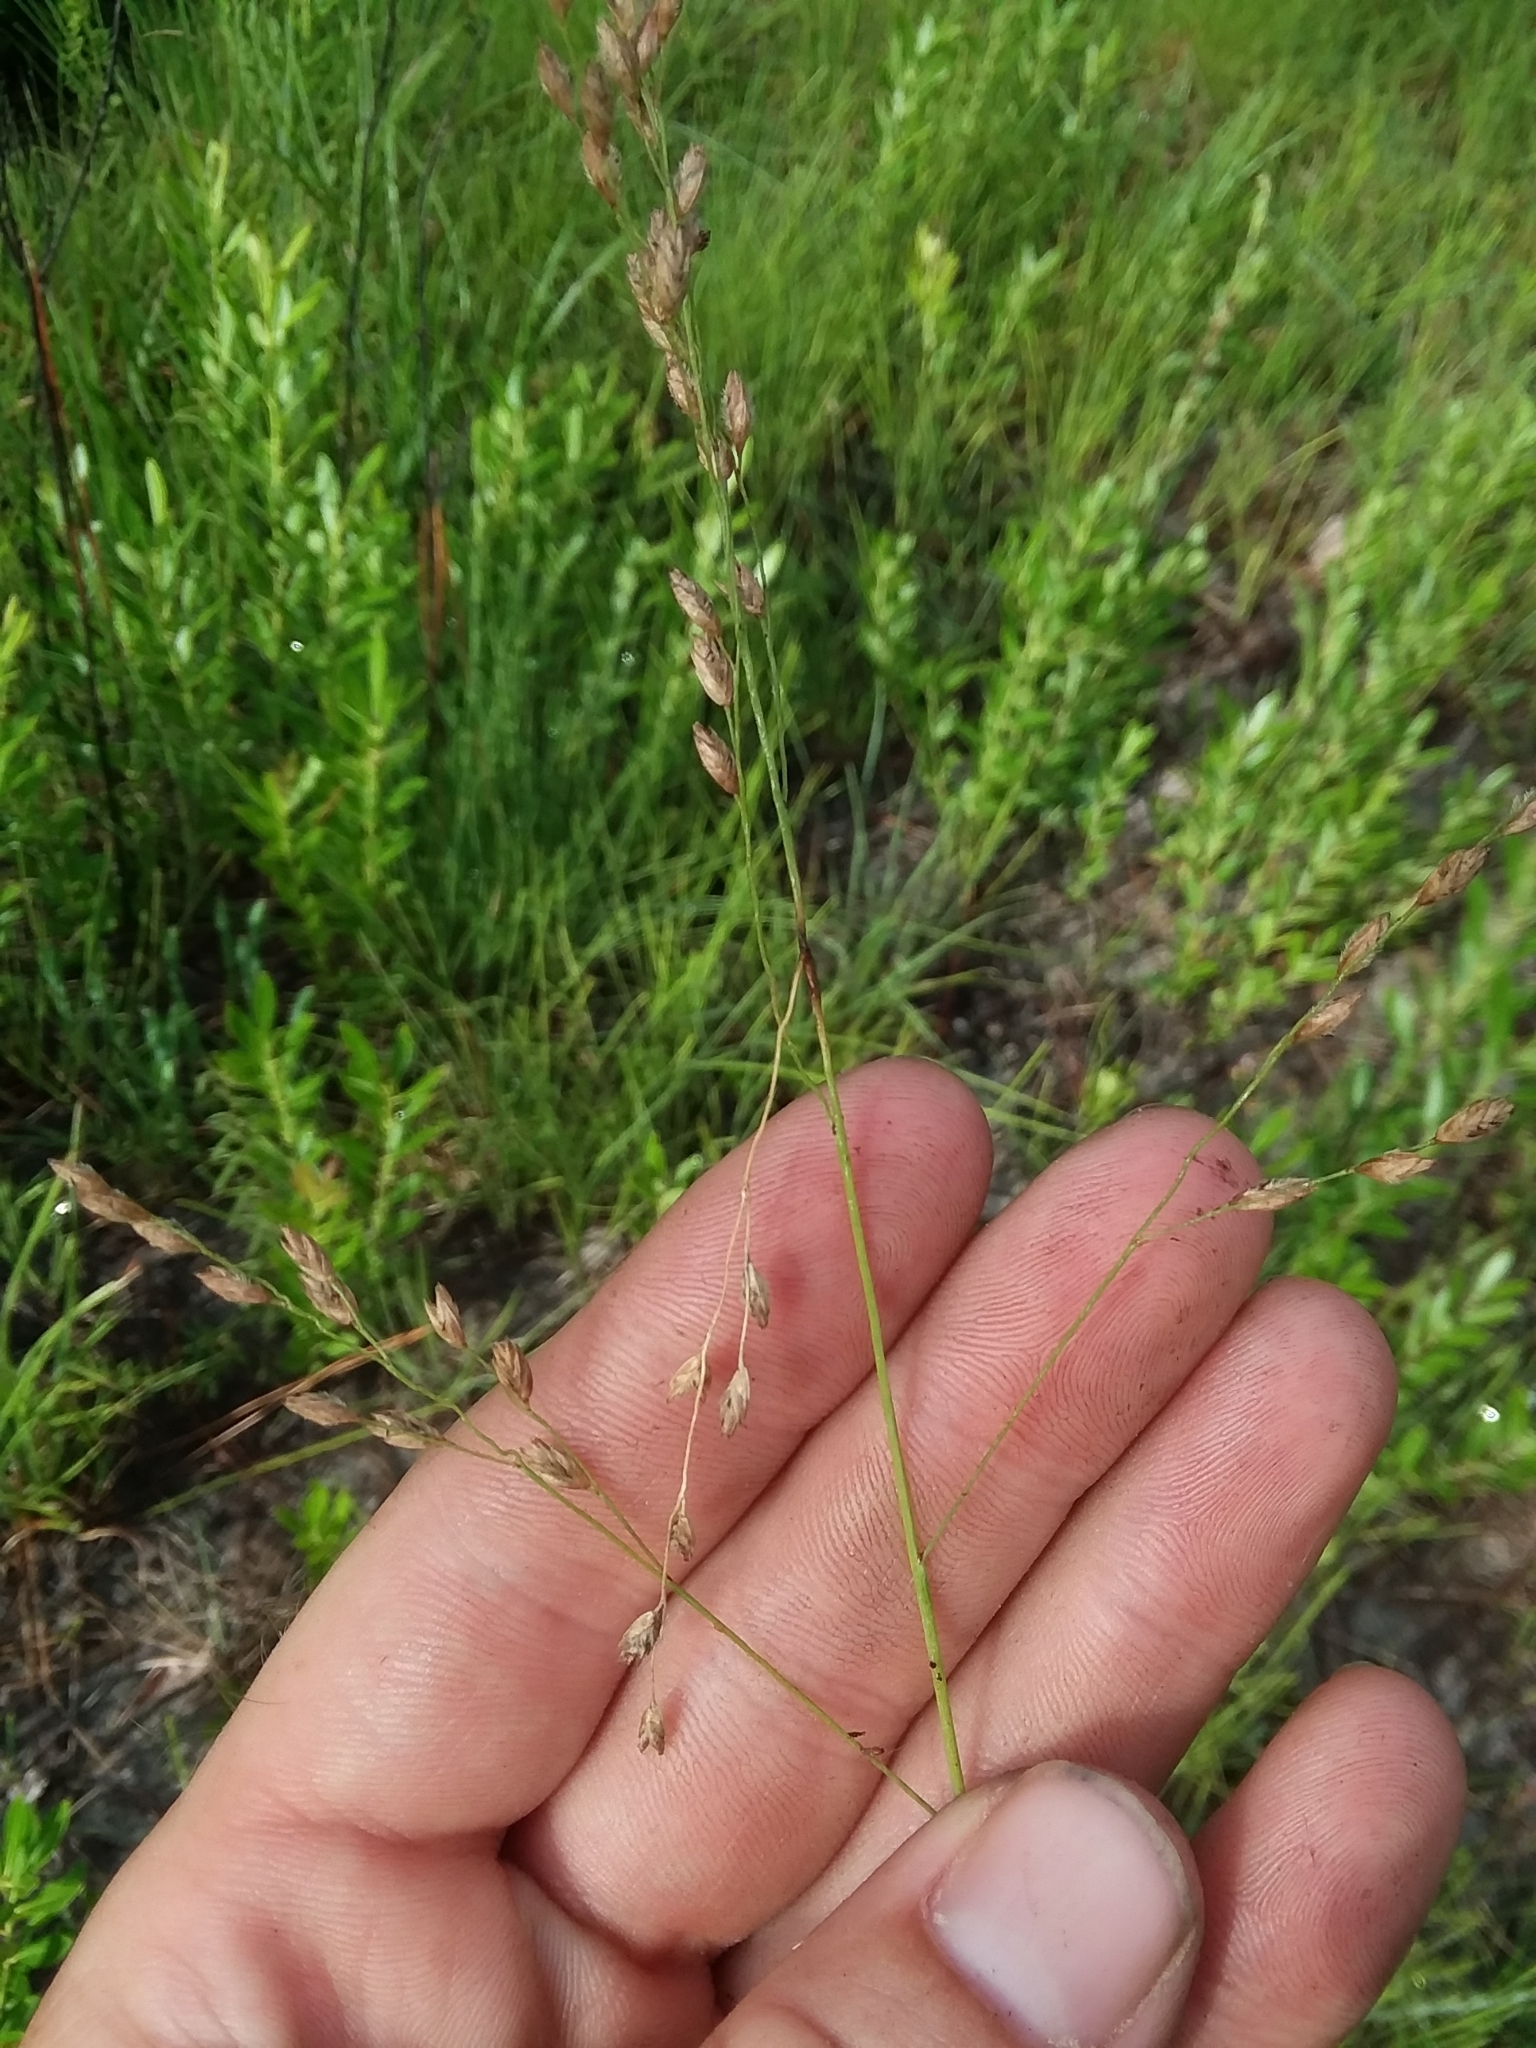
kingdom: Plantae
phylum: Tracheophyta
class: Liliopsida
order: Poales
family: Poaceae
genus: Tridens
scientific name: Tridens ambiguus
